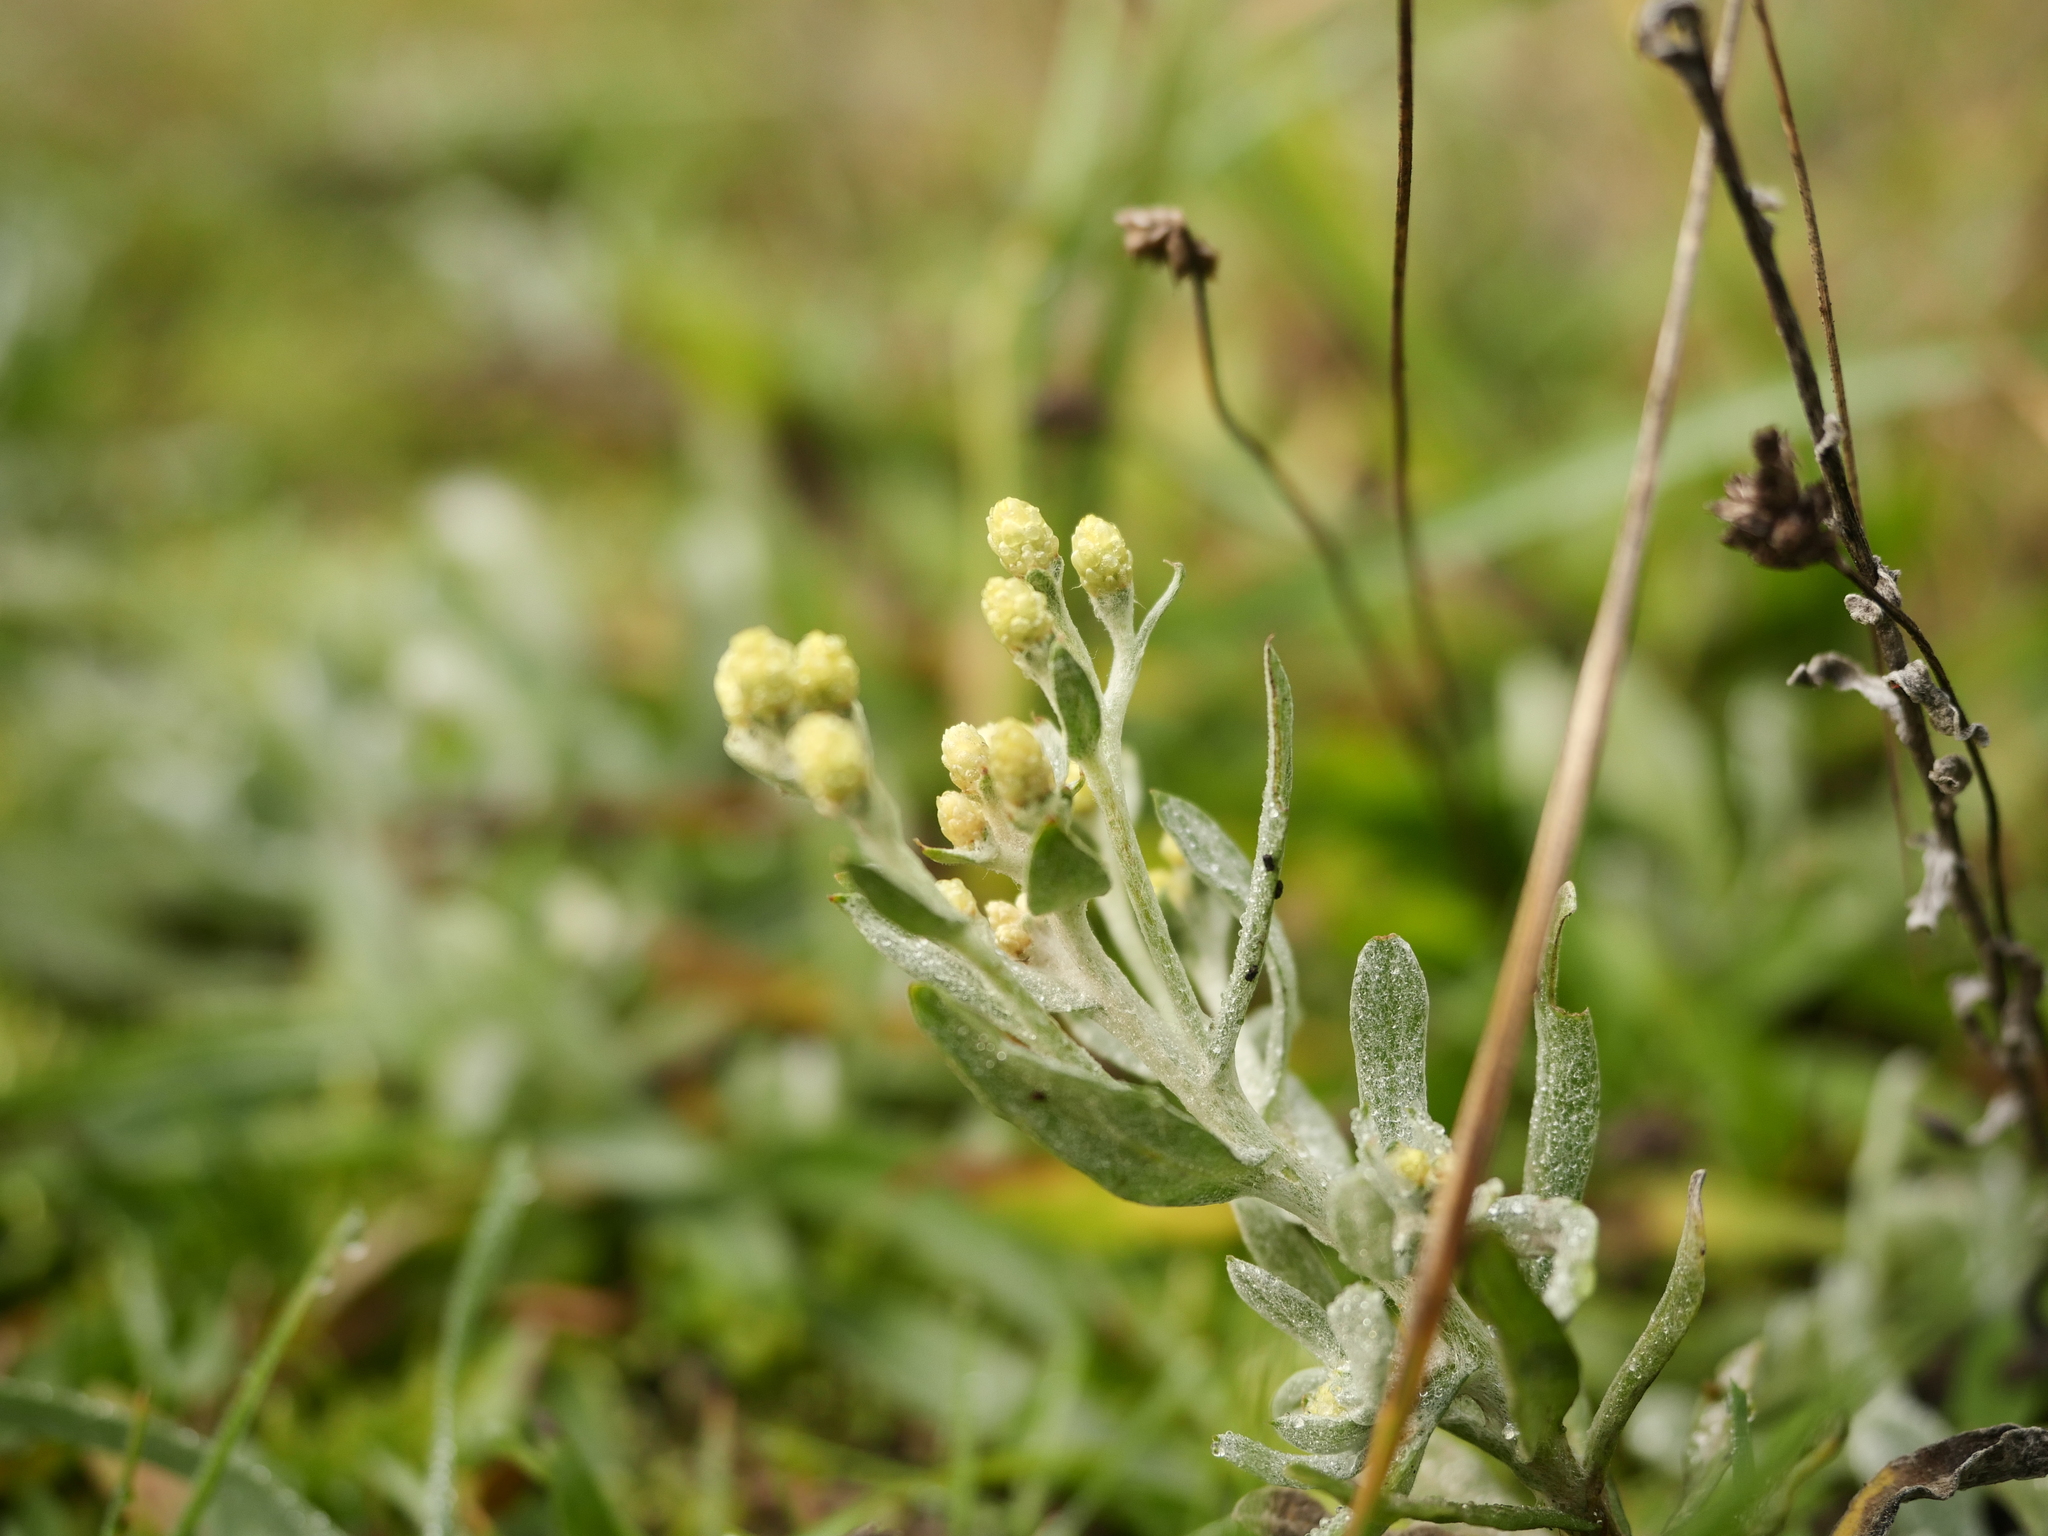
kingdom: Plantae
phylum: Tracheophyta
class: Magnoliopsida
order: Asterales
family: Asteraceae
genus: Helichrysum
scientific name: Helichrysum arenarium
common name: Strawflower
